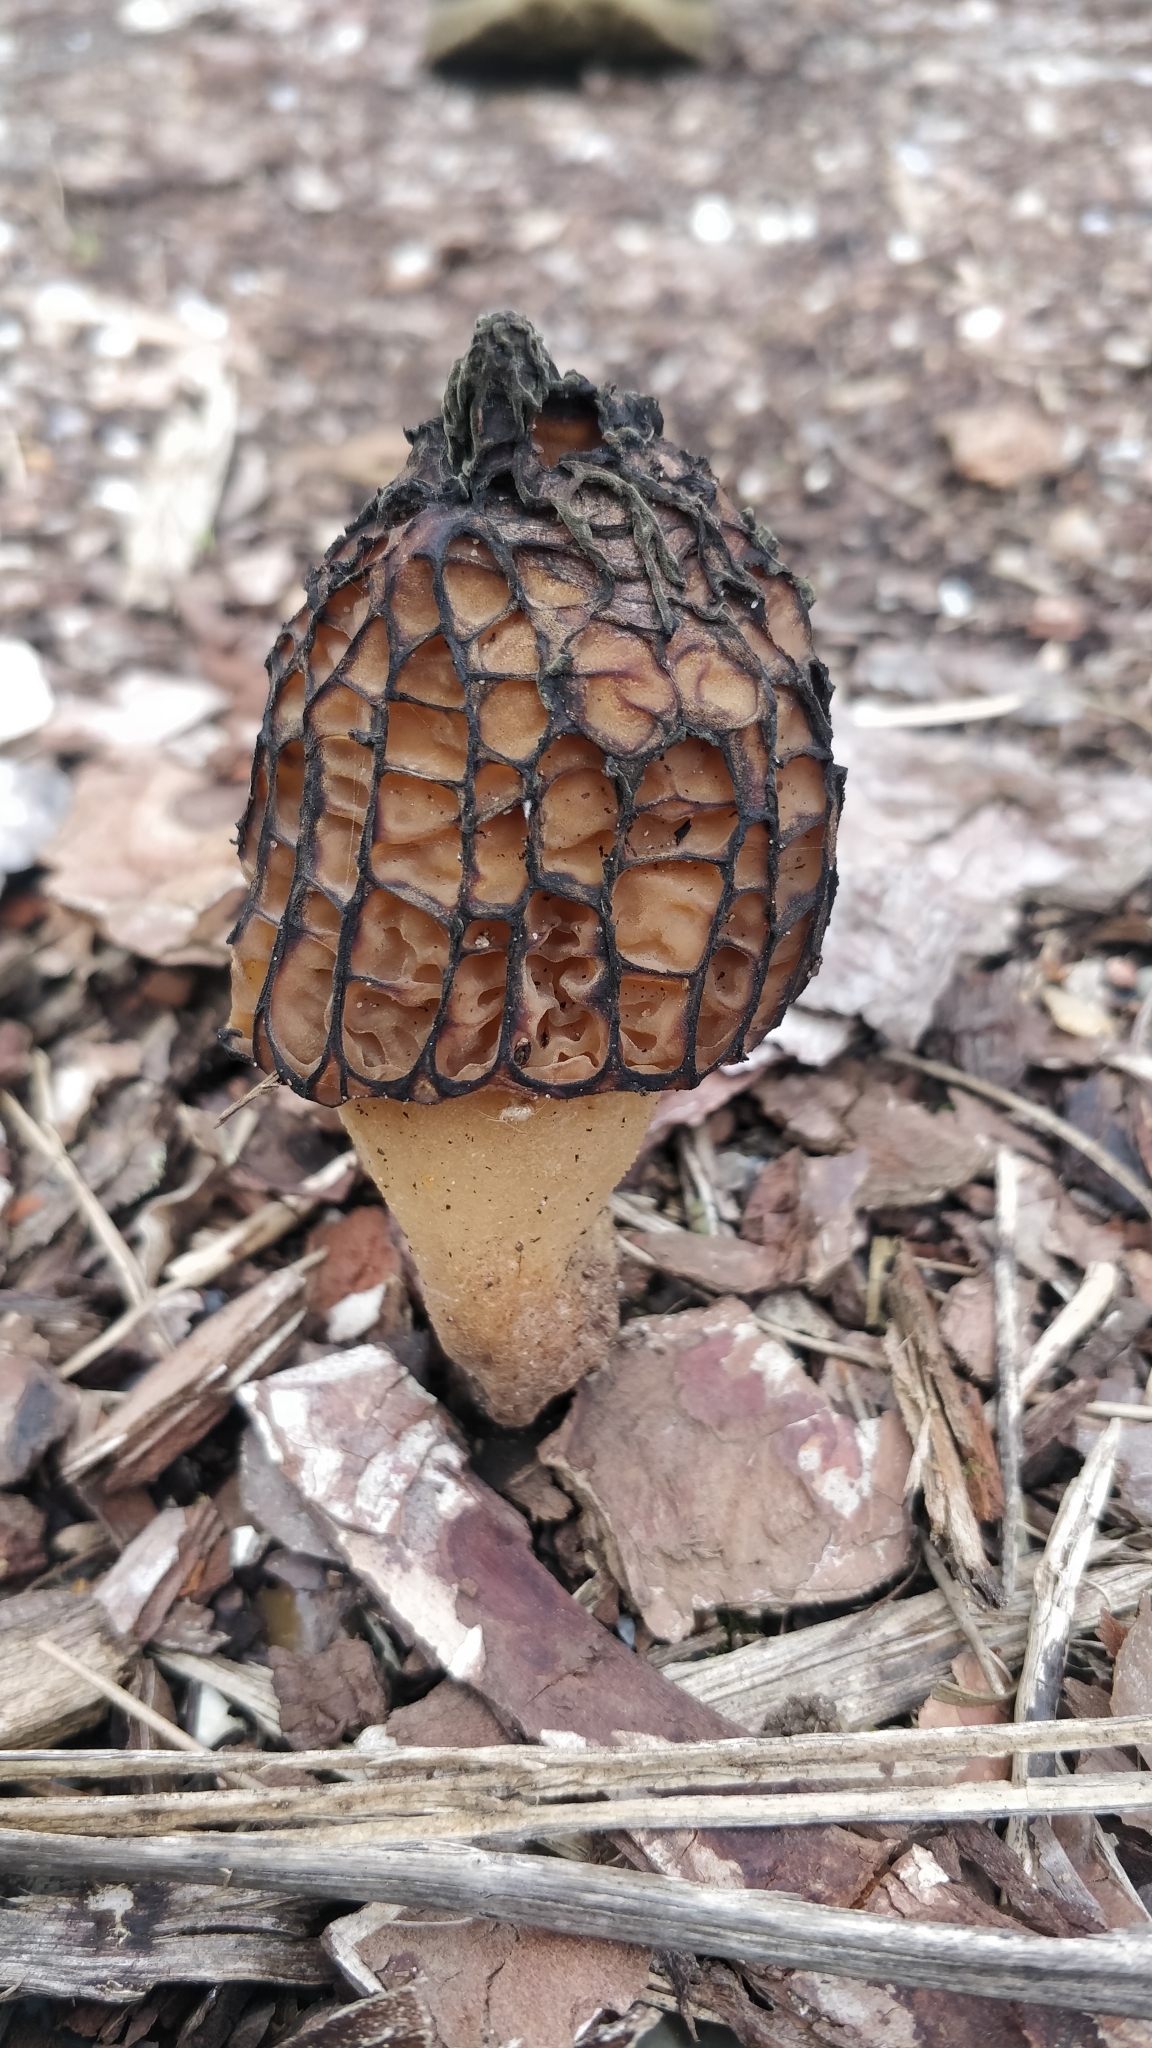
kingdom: Fungi
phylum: Ascomycota
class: Pezizomycetes
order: Pezizales
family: Morchellaceae
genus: Morchella
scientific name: Morchella importuna
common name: Landscaping black morel
